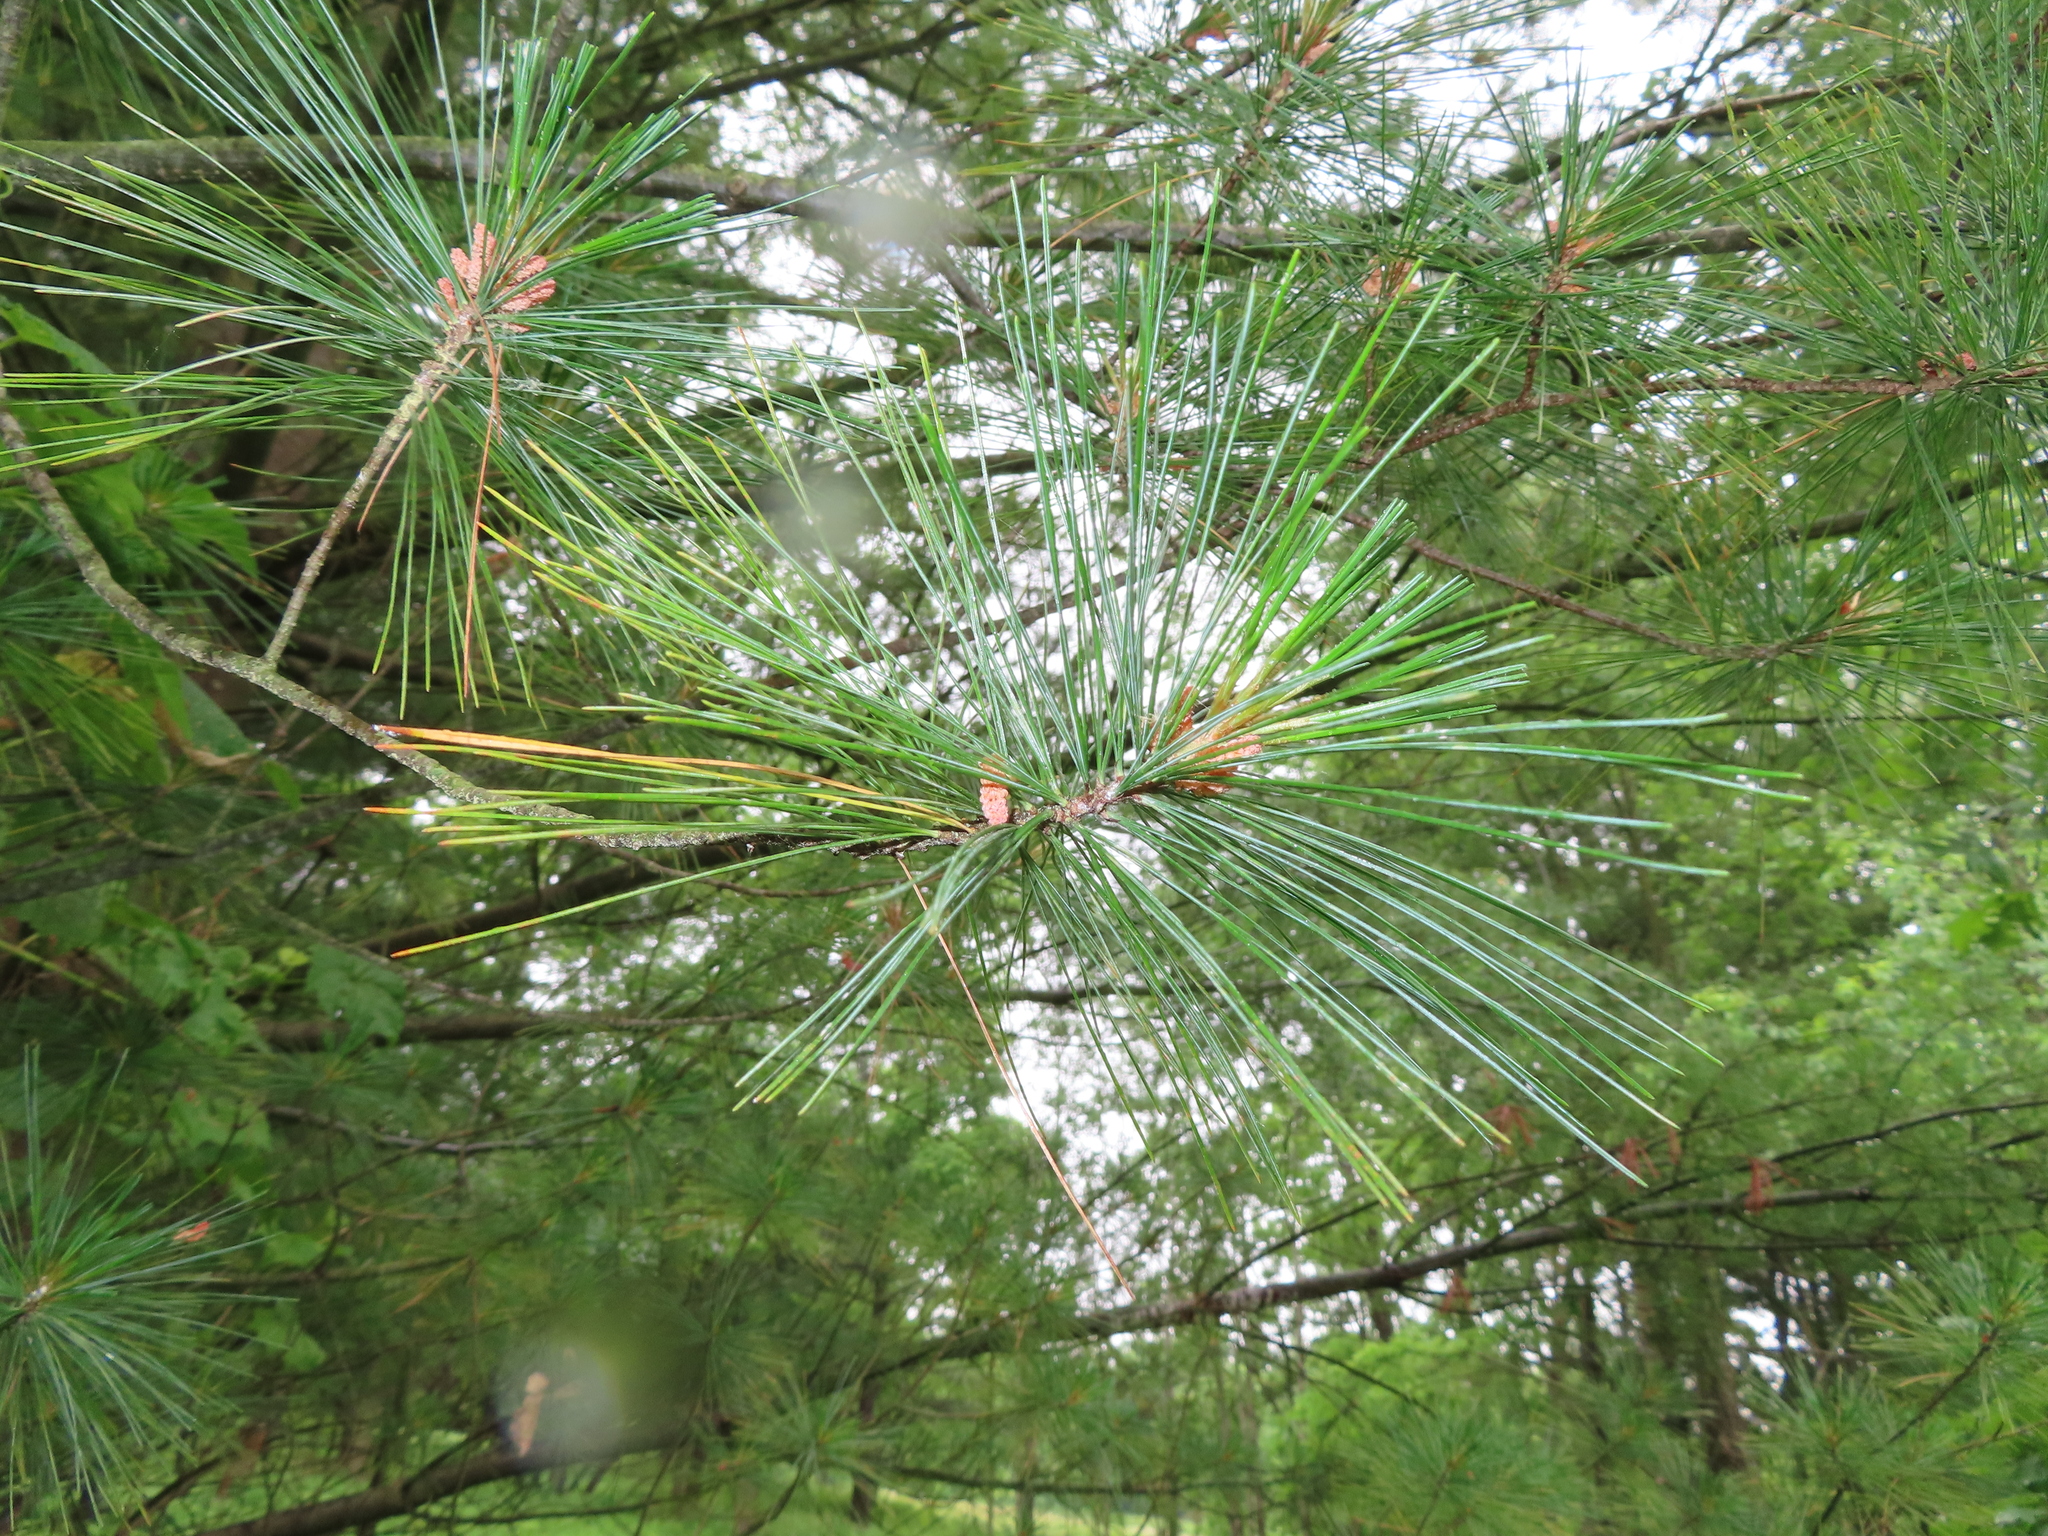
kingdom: Plantae
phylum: Tracheophyta
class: Pinopsida
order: Pinales
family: Pinaceae
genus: Pinus
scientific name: Pinus strobus
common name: Weymouth pine
